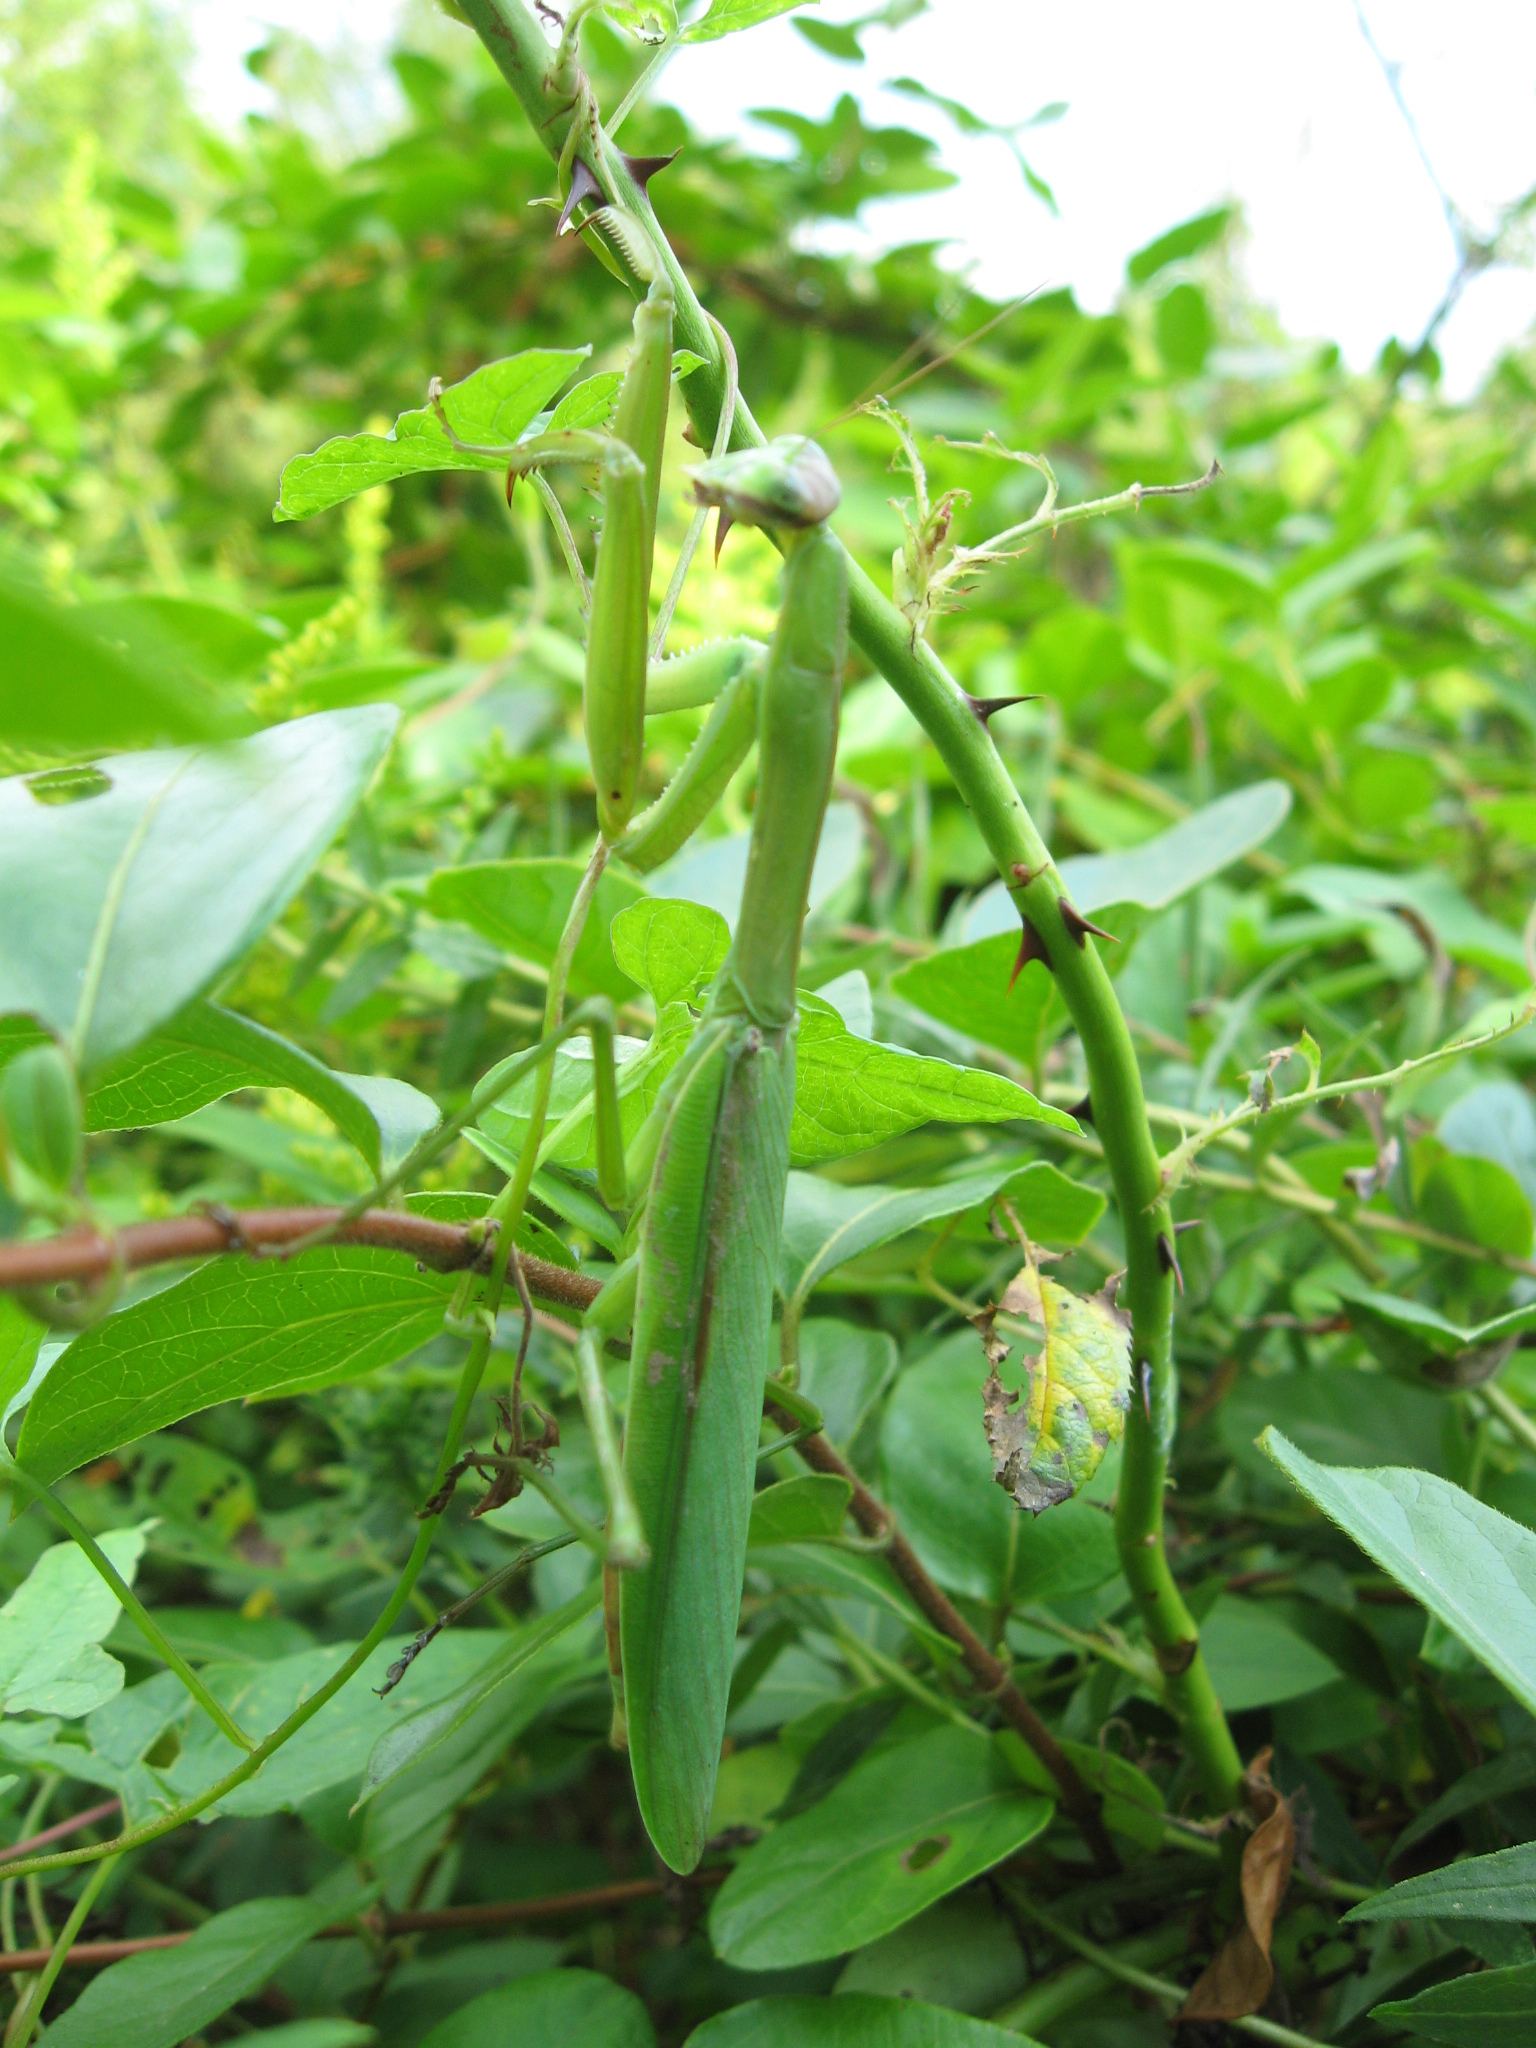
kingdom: Animalia
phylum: Arthropoda
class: Insecta
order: Mantodea
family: Mantidae
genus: Tenodera
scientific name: Tenodera sinensis
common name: Chinese mantis
